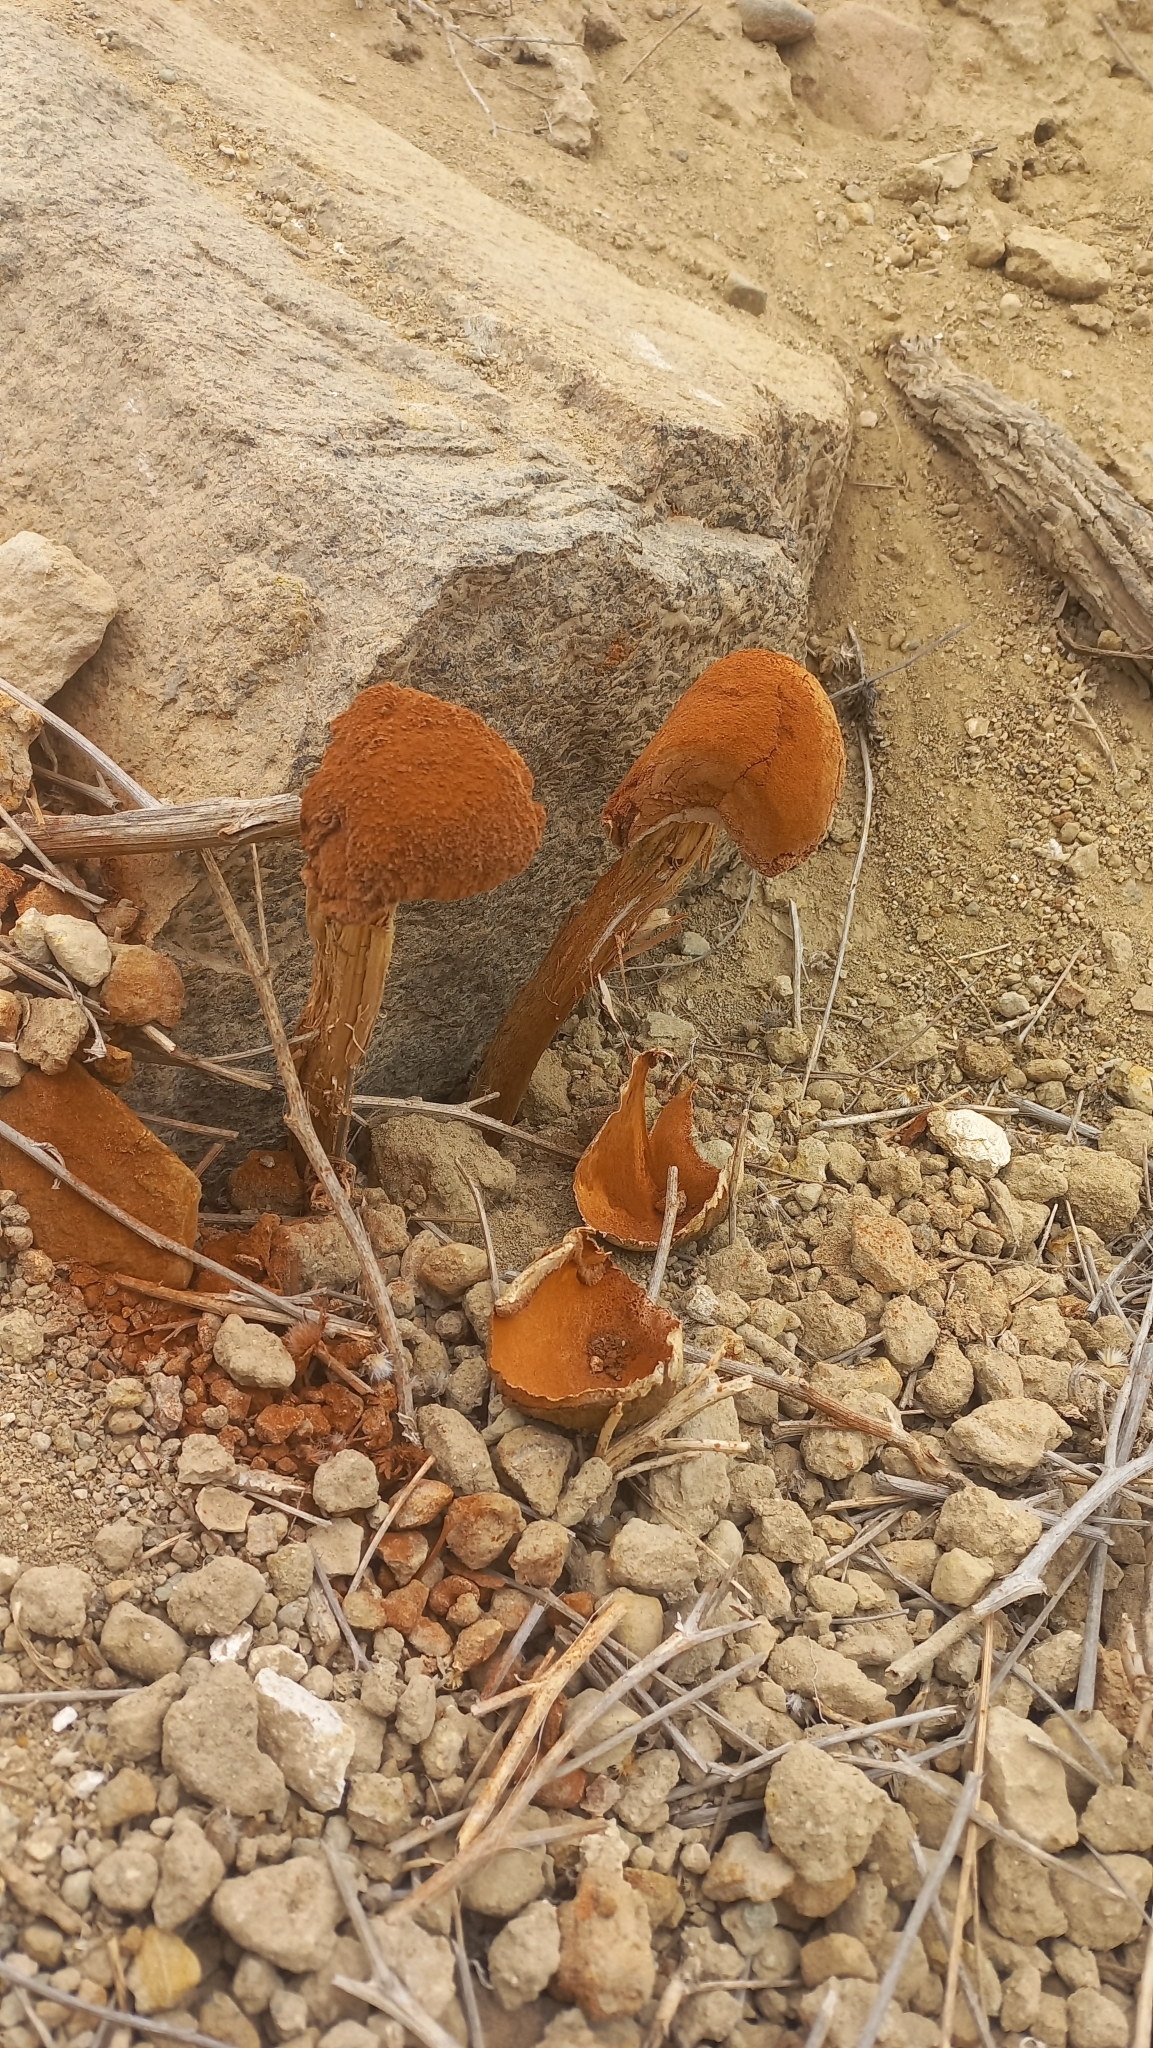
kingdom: Fungi
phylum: Basidiomycota
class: Agaricomycetes
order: Agaricales
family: Agaricaceae
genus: Battarrea
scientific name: Battarrea phalloides
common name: Sandy stiltball
